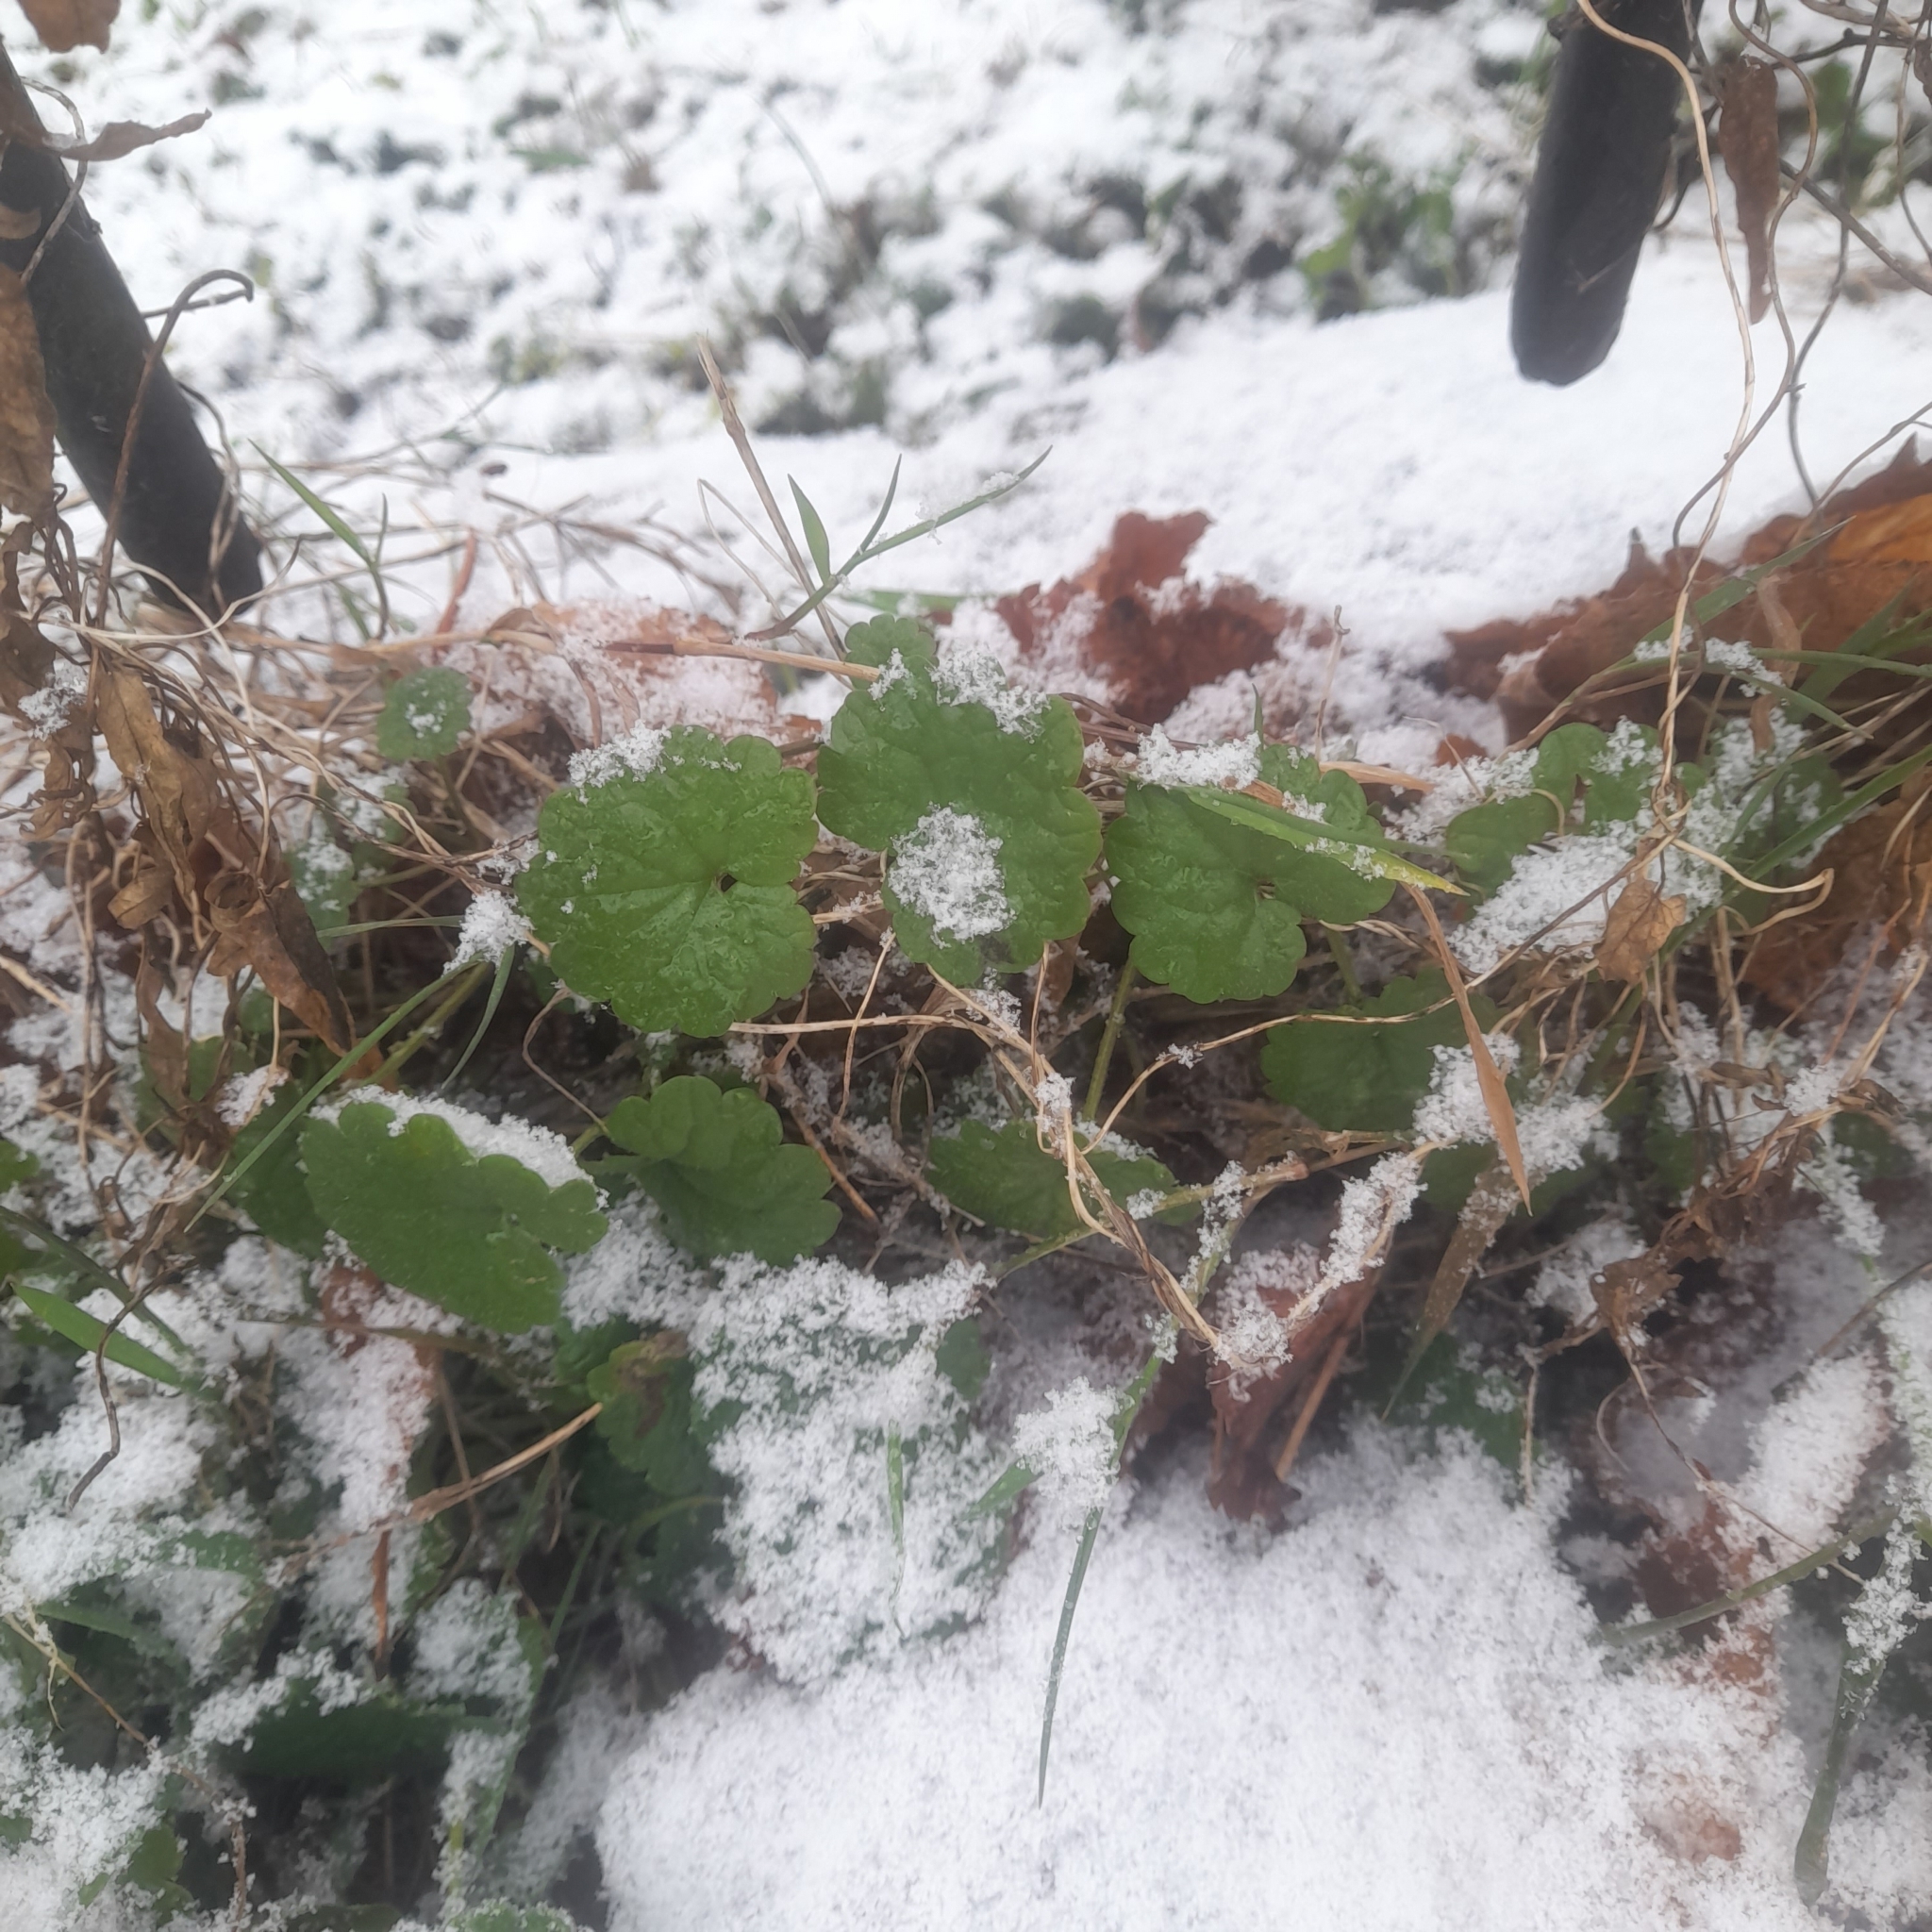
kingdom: Plantae
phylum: Tracheophyta
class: Magnoliopsida
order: Lamiales
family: Lamiaceae
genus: Glechoma
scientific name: Glechoma hederacea
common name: Ground ivy
